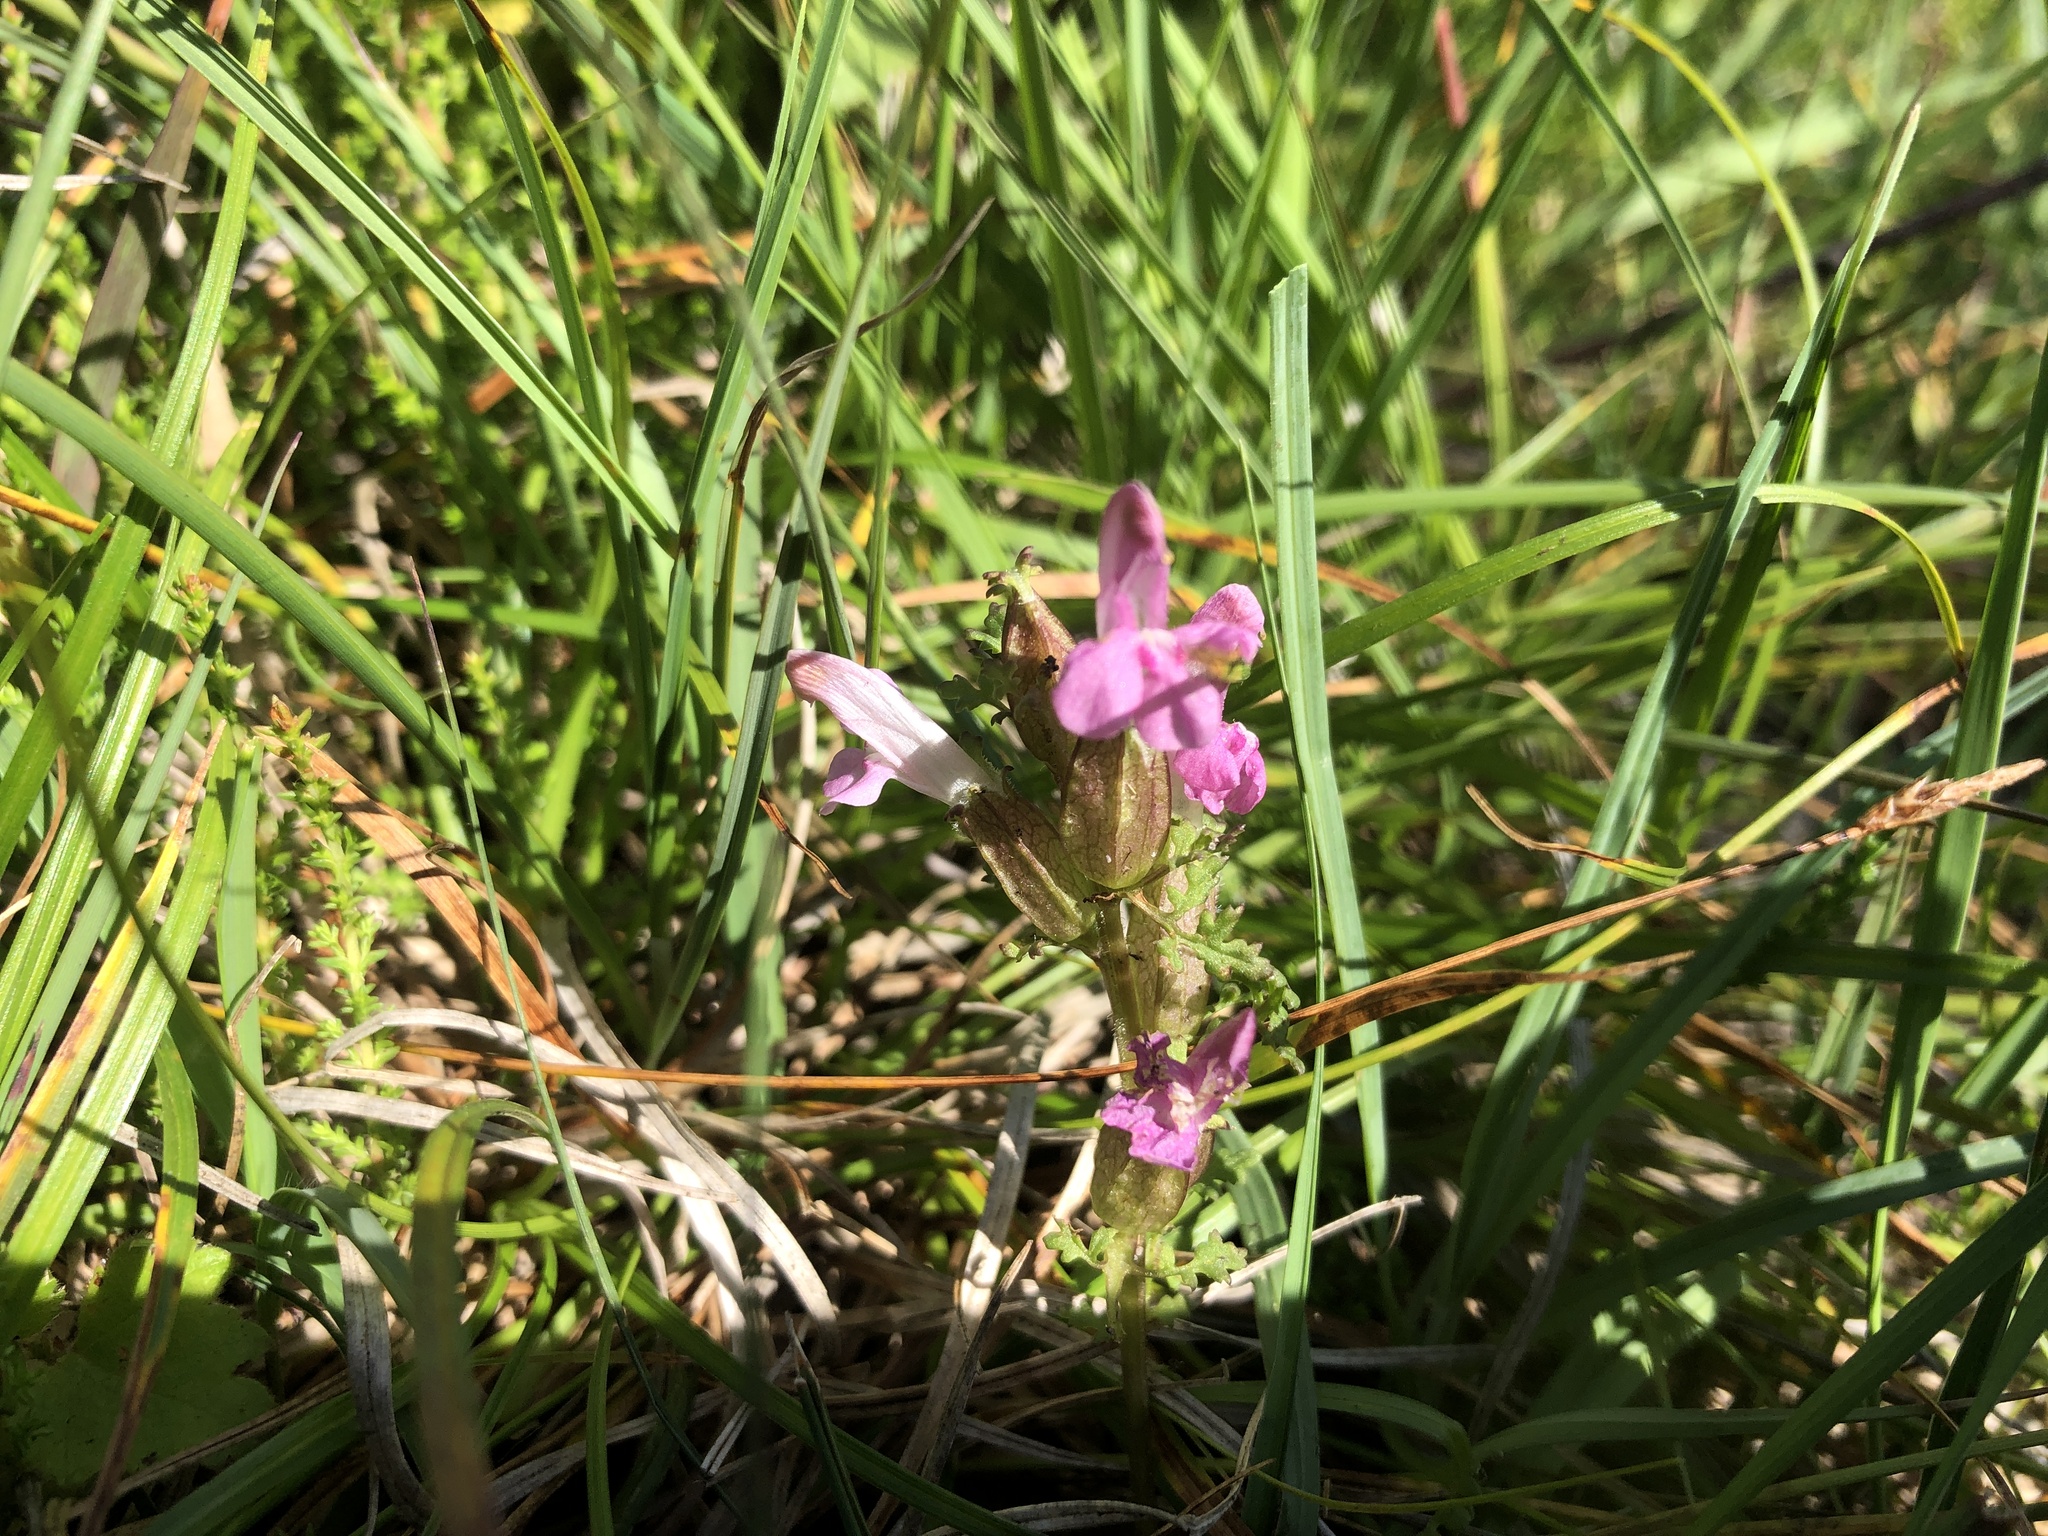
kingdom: Plantae
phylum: Tracheophyta
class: Magnoliopsida
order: Lamiales
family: Orobanchaceae
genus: Pedicularis
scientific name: Pedicularis sylvatica
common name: Lousewort
